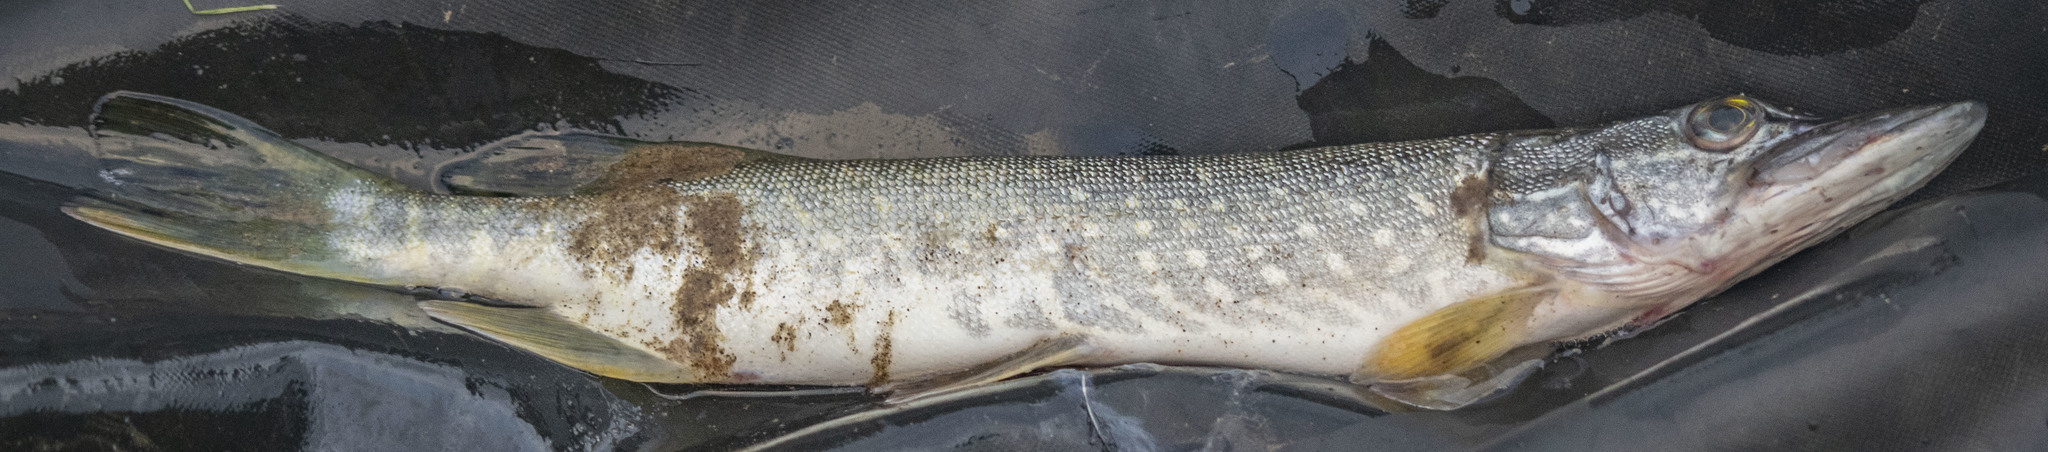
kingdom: Animalia
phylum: Chordata
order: Esociformes
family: Esocidae
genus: Esox
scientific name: Esox lucius
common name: Northern pike
